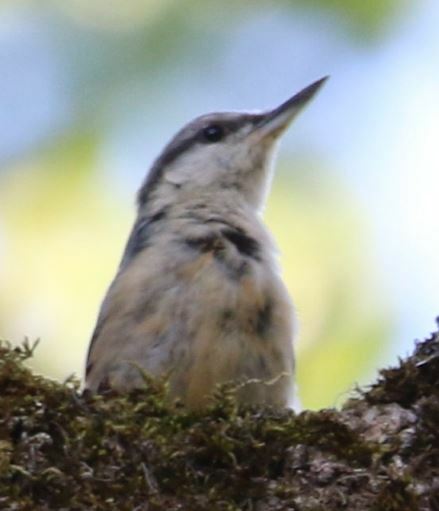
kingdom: Animalia
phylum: Chordata
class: Aves
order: Passeriformes
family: Sittidae
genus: Sitta
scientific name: Sitta europaea
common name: Eurasian nuthatch
